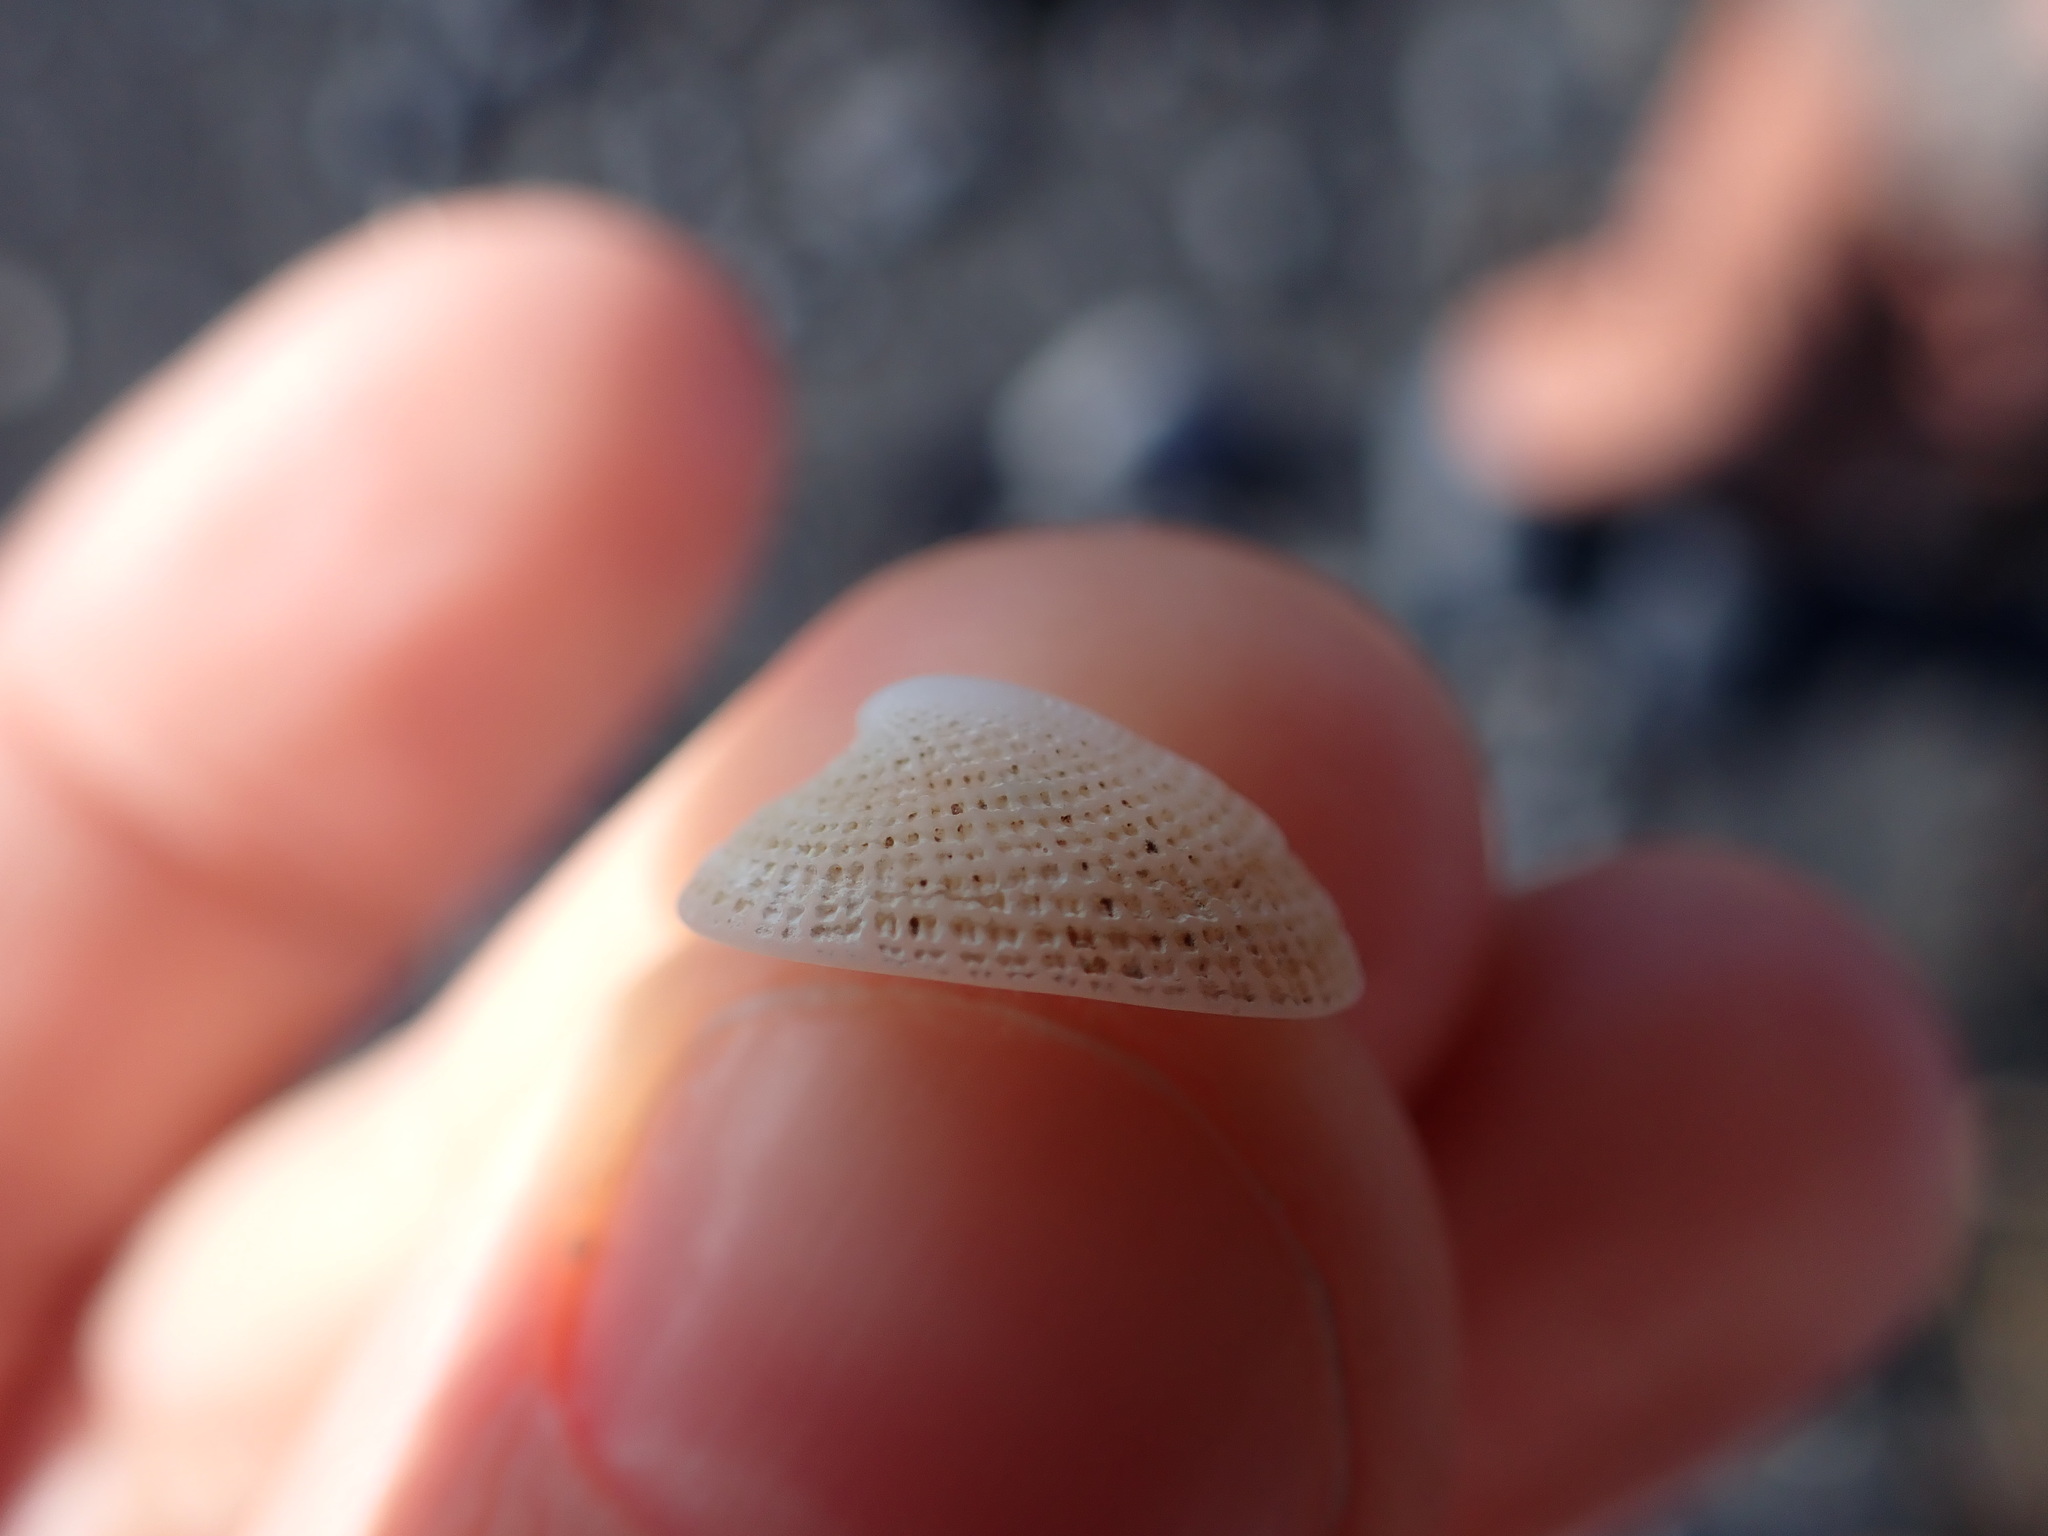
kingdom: Animalia
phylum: Mollusca
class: Gastropoda
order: Lepetellida
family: Fissurellidae
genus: Tugali
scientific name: Tugali suteri
